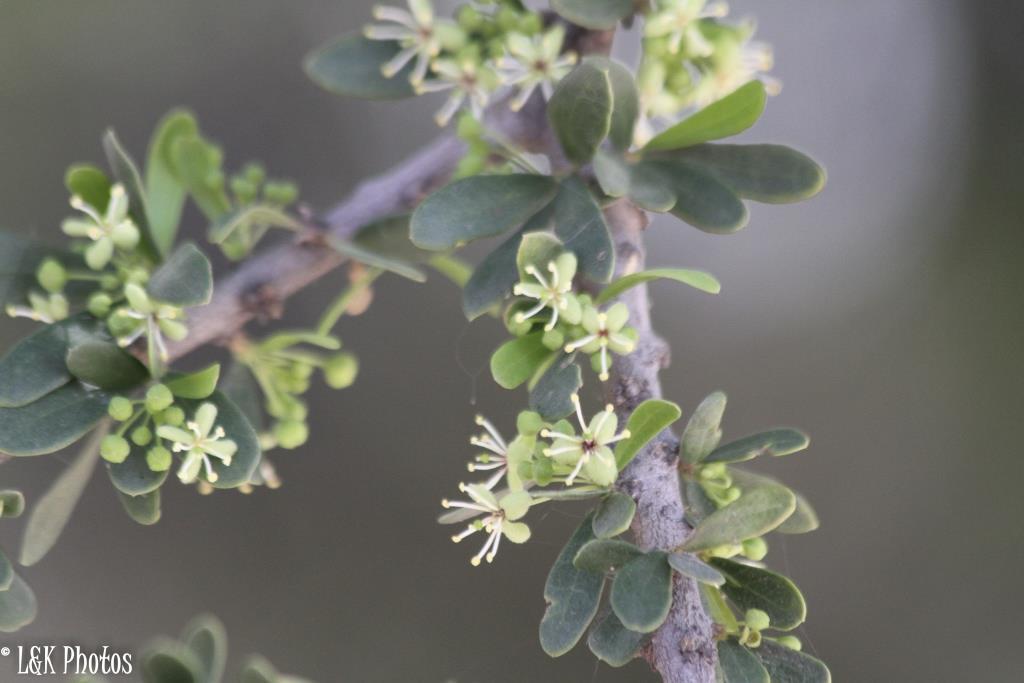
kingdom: Plantae
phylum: Tracheophyta
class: Magnoliopsida
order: Brassicales
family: Capparaceae
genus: Boscia
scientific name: Boscia foetida
